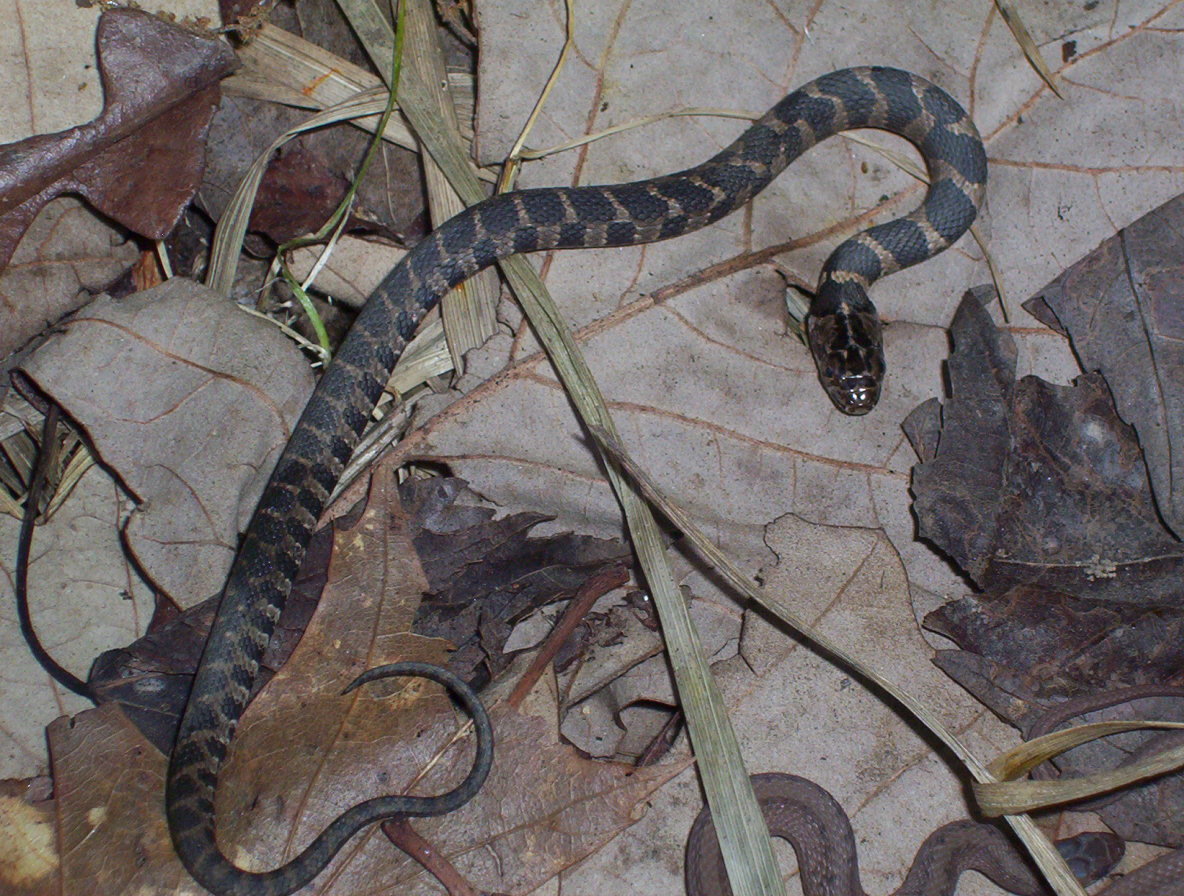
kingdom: Animalia
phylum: Chordata
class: Squamata
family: Colubridae
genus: Nerodia
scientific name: Nerodia sipedon
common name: Northern water snake
